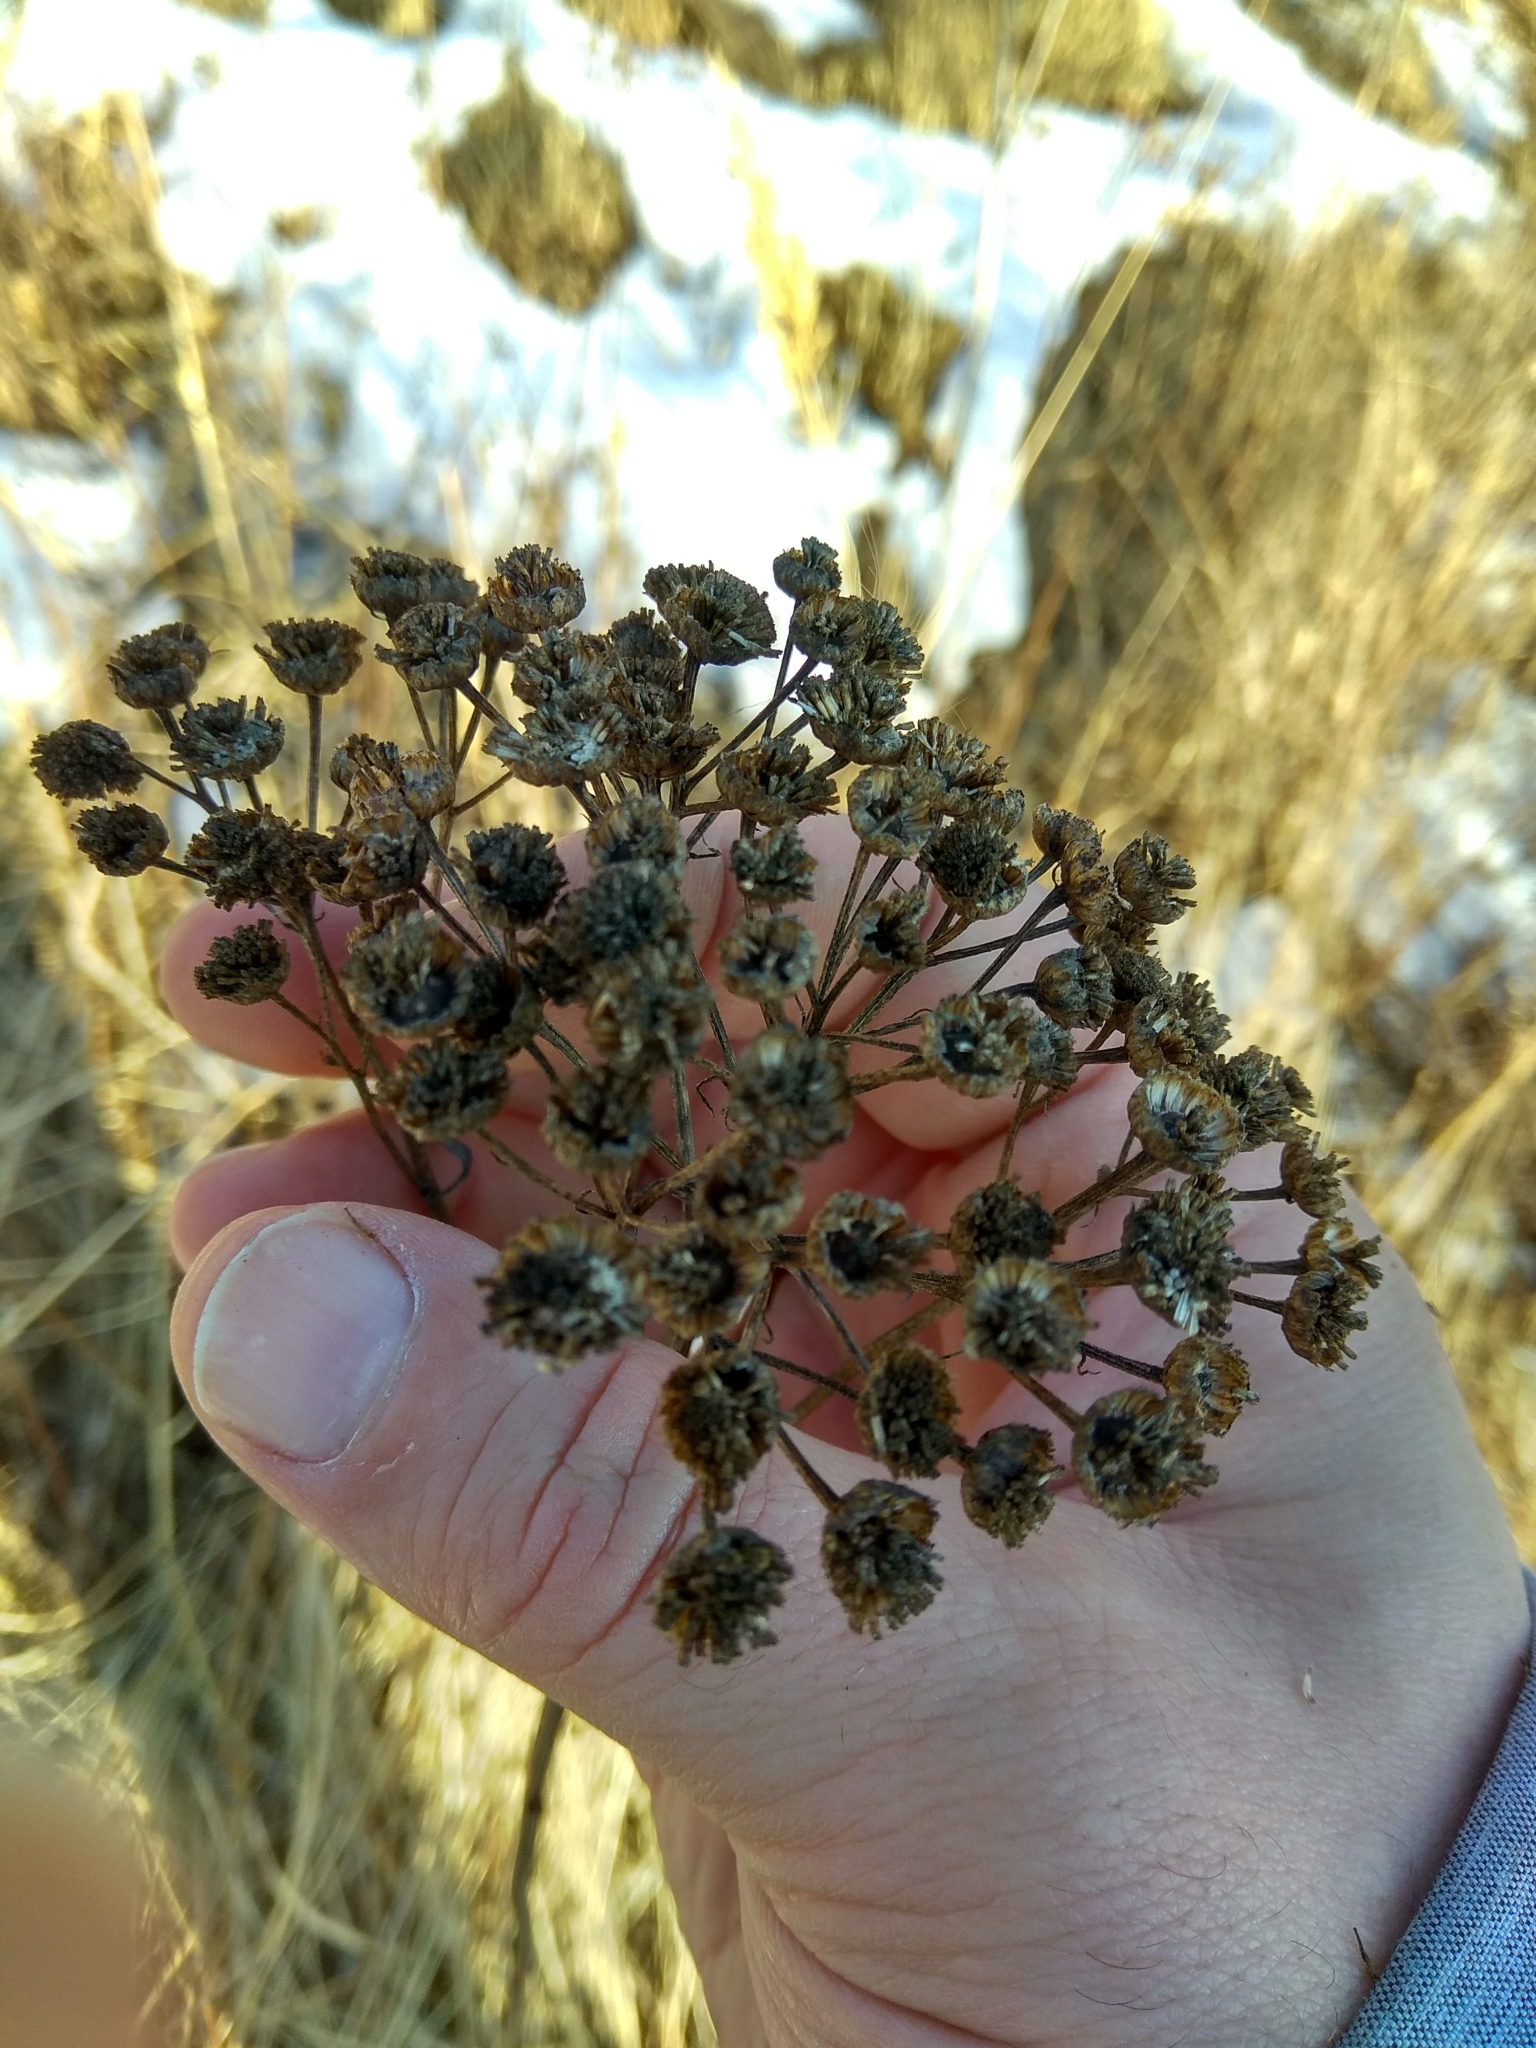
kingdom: Plantae
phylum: Tracheophyta
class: Magnoliopsida
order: Asterales
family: Asteraceae
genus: Tanacetum
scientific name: Tanacetum vulgare
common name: Common tansy
